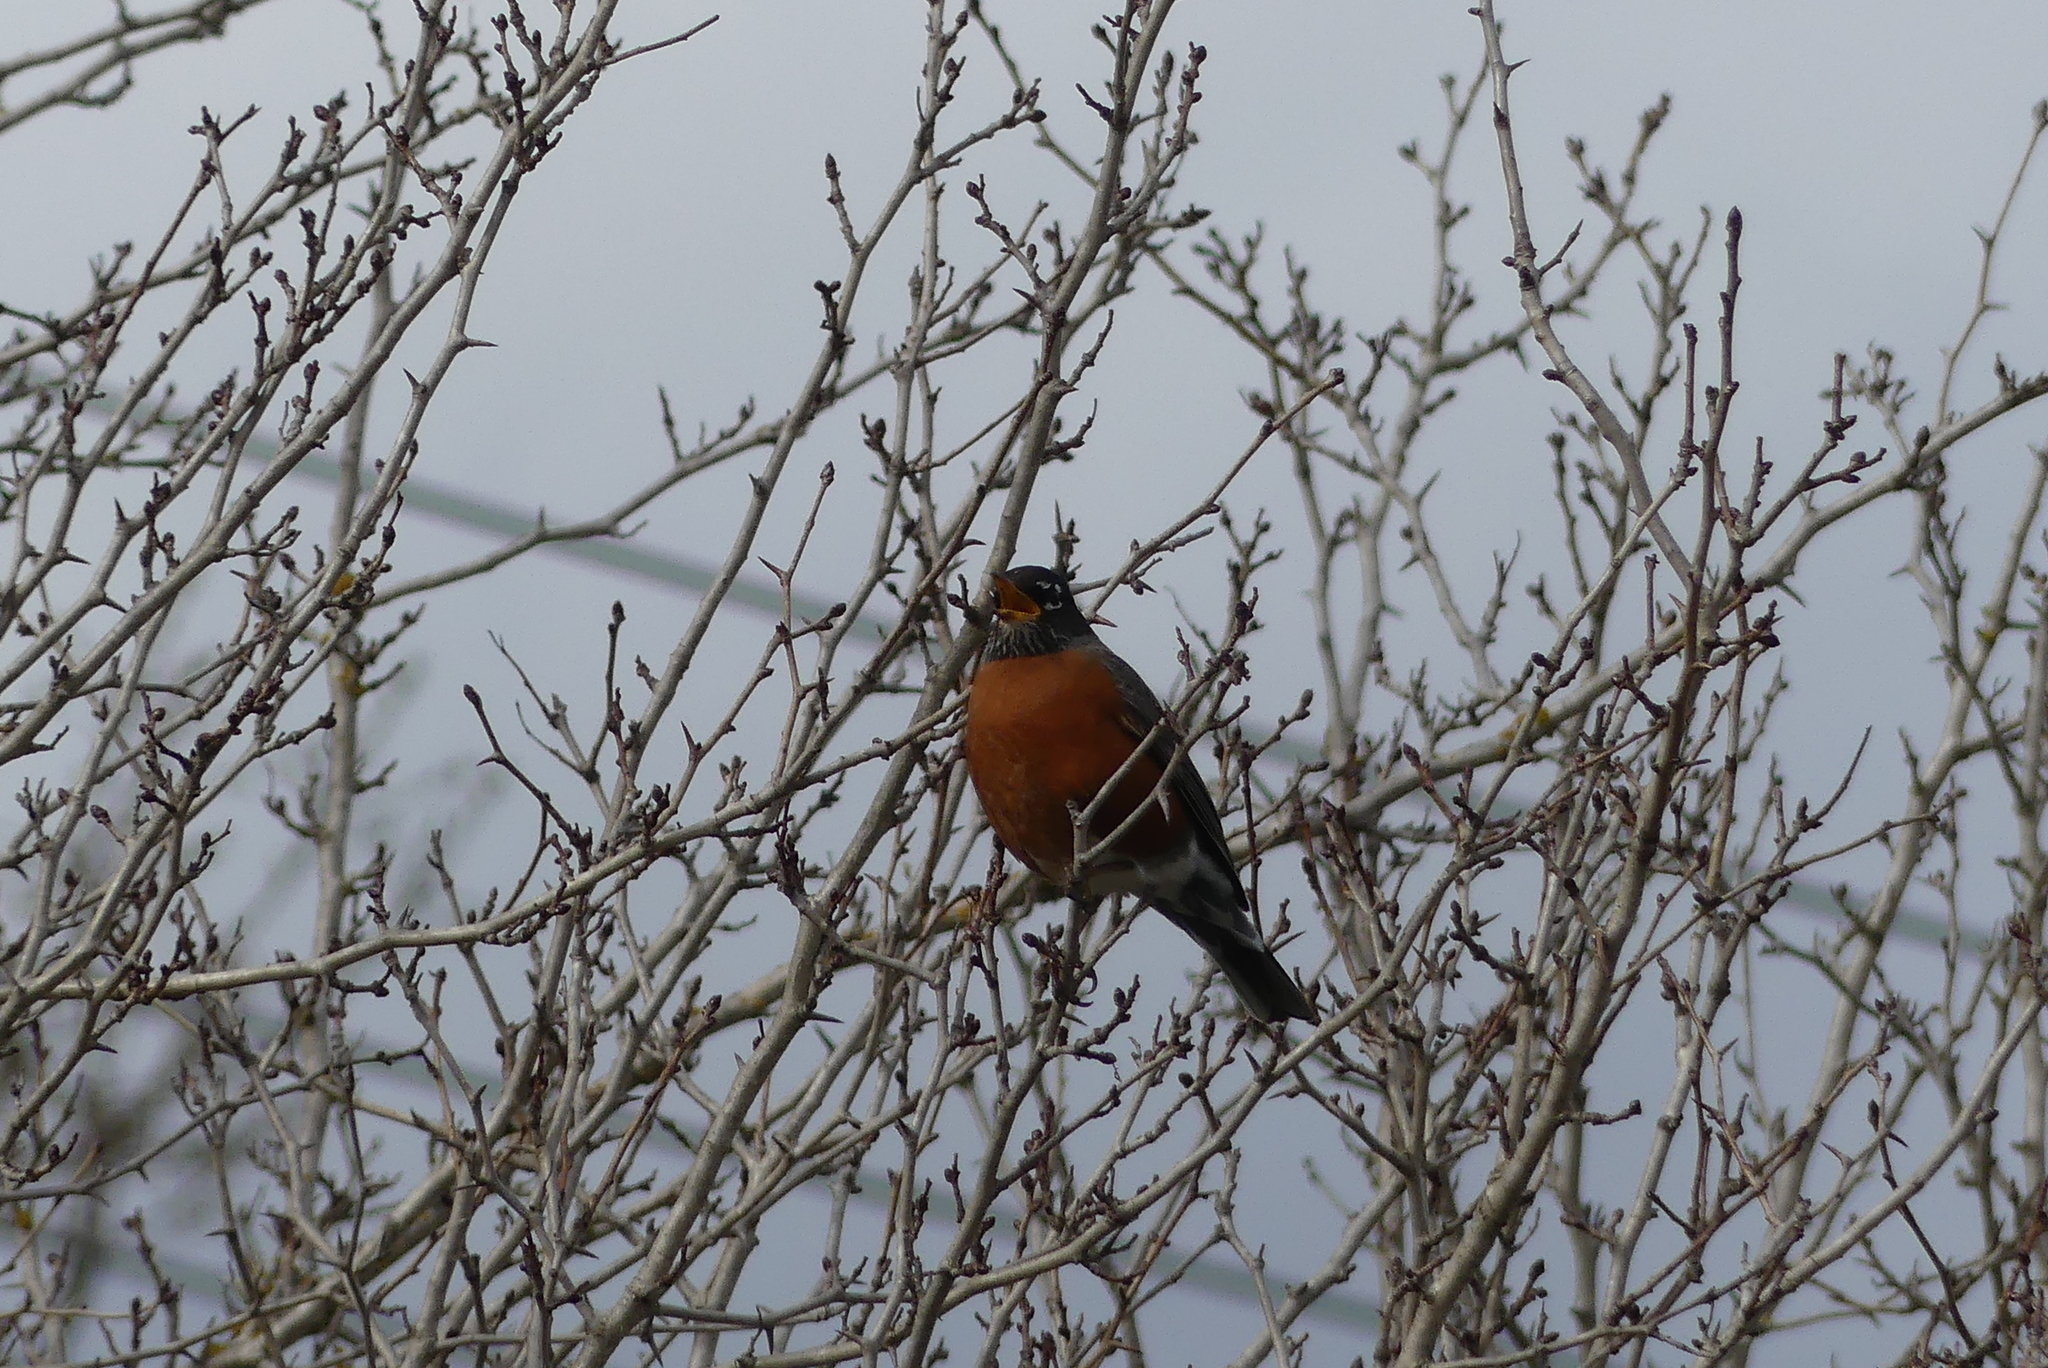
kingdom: Animalia
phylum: Chordata
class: Aves
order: Passeriformes
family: Turdidae
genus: Turdus
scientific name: Turdus migratorius
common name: American robin
